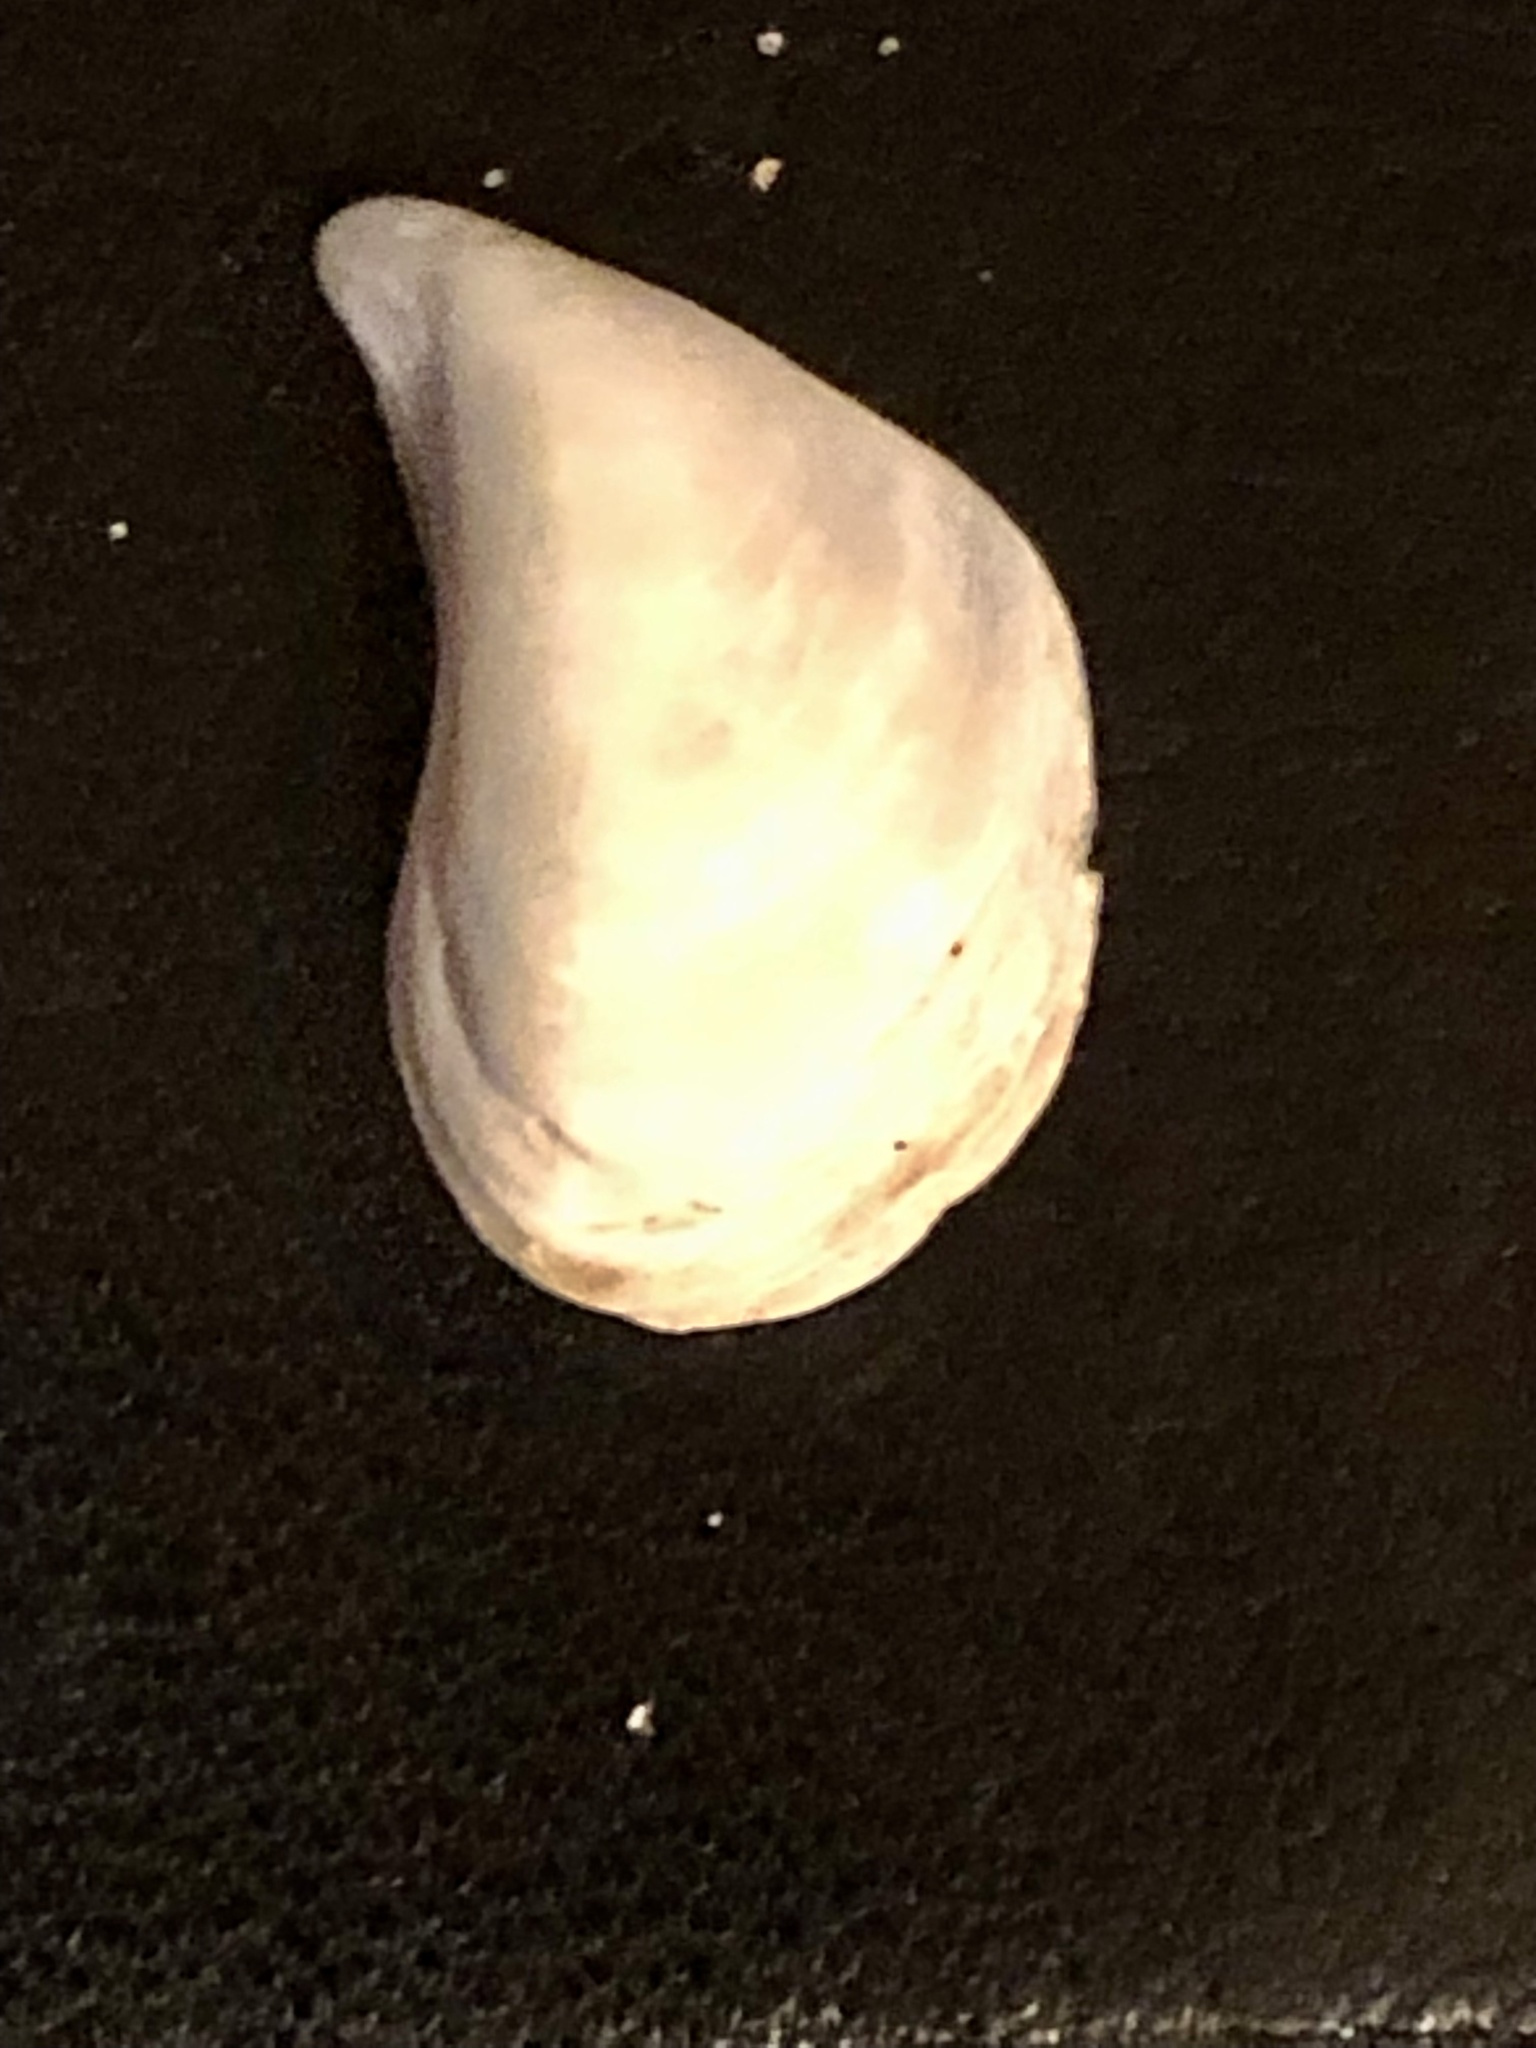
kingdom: Animalia
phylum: Mollusca
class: Bivalvia
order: Myida
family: Dreissenidae
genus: Dreissena
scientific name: Dreissena bugensis
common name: Quagga mussel
